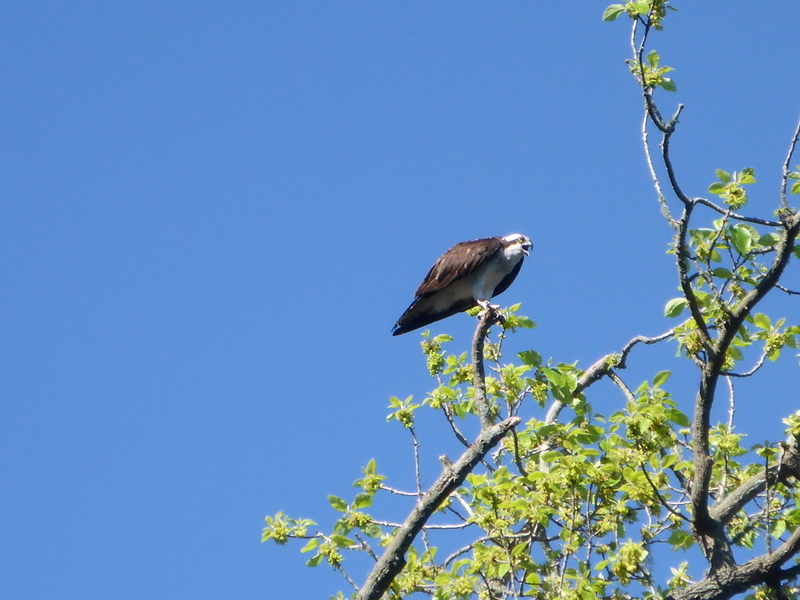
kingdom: Animalia
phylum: Chordata
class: Aves
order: Accipitriformes
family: Pandionidae
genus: Pandion
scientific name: Pandion haliaetus
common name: Osprey
